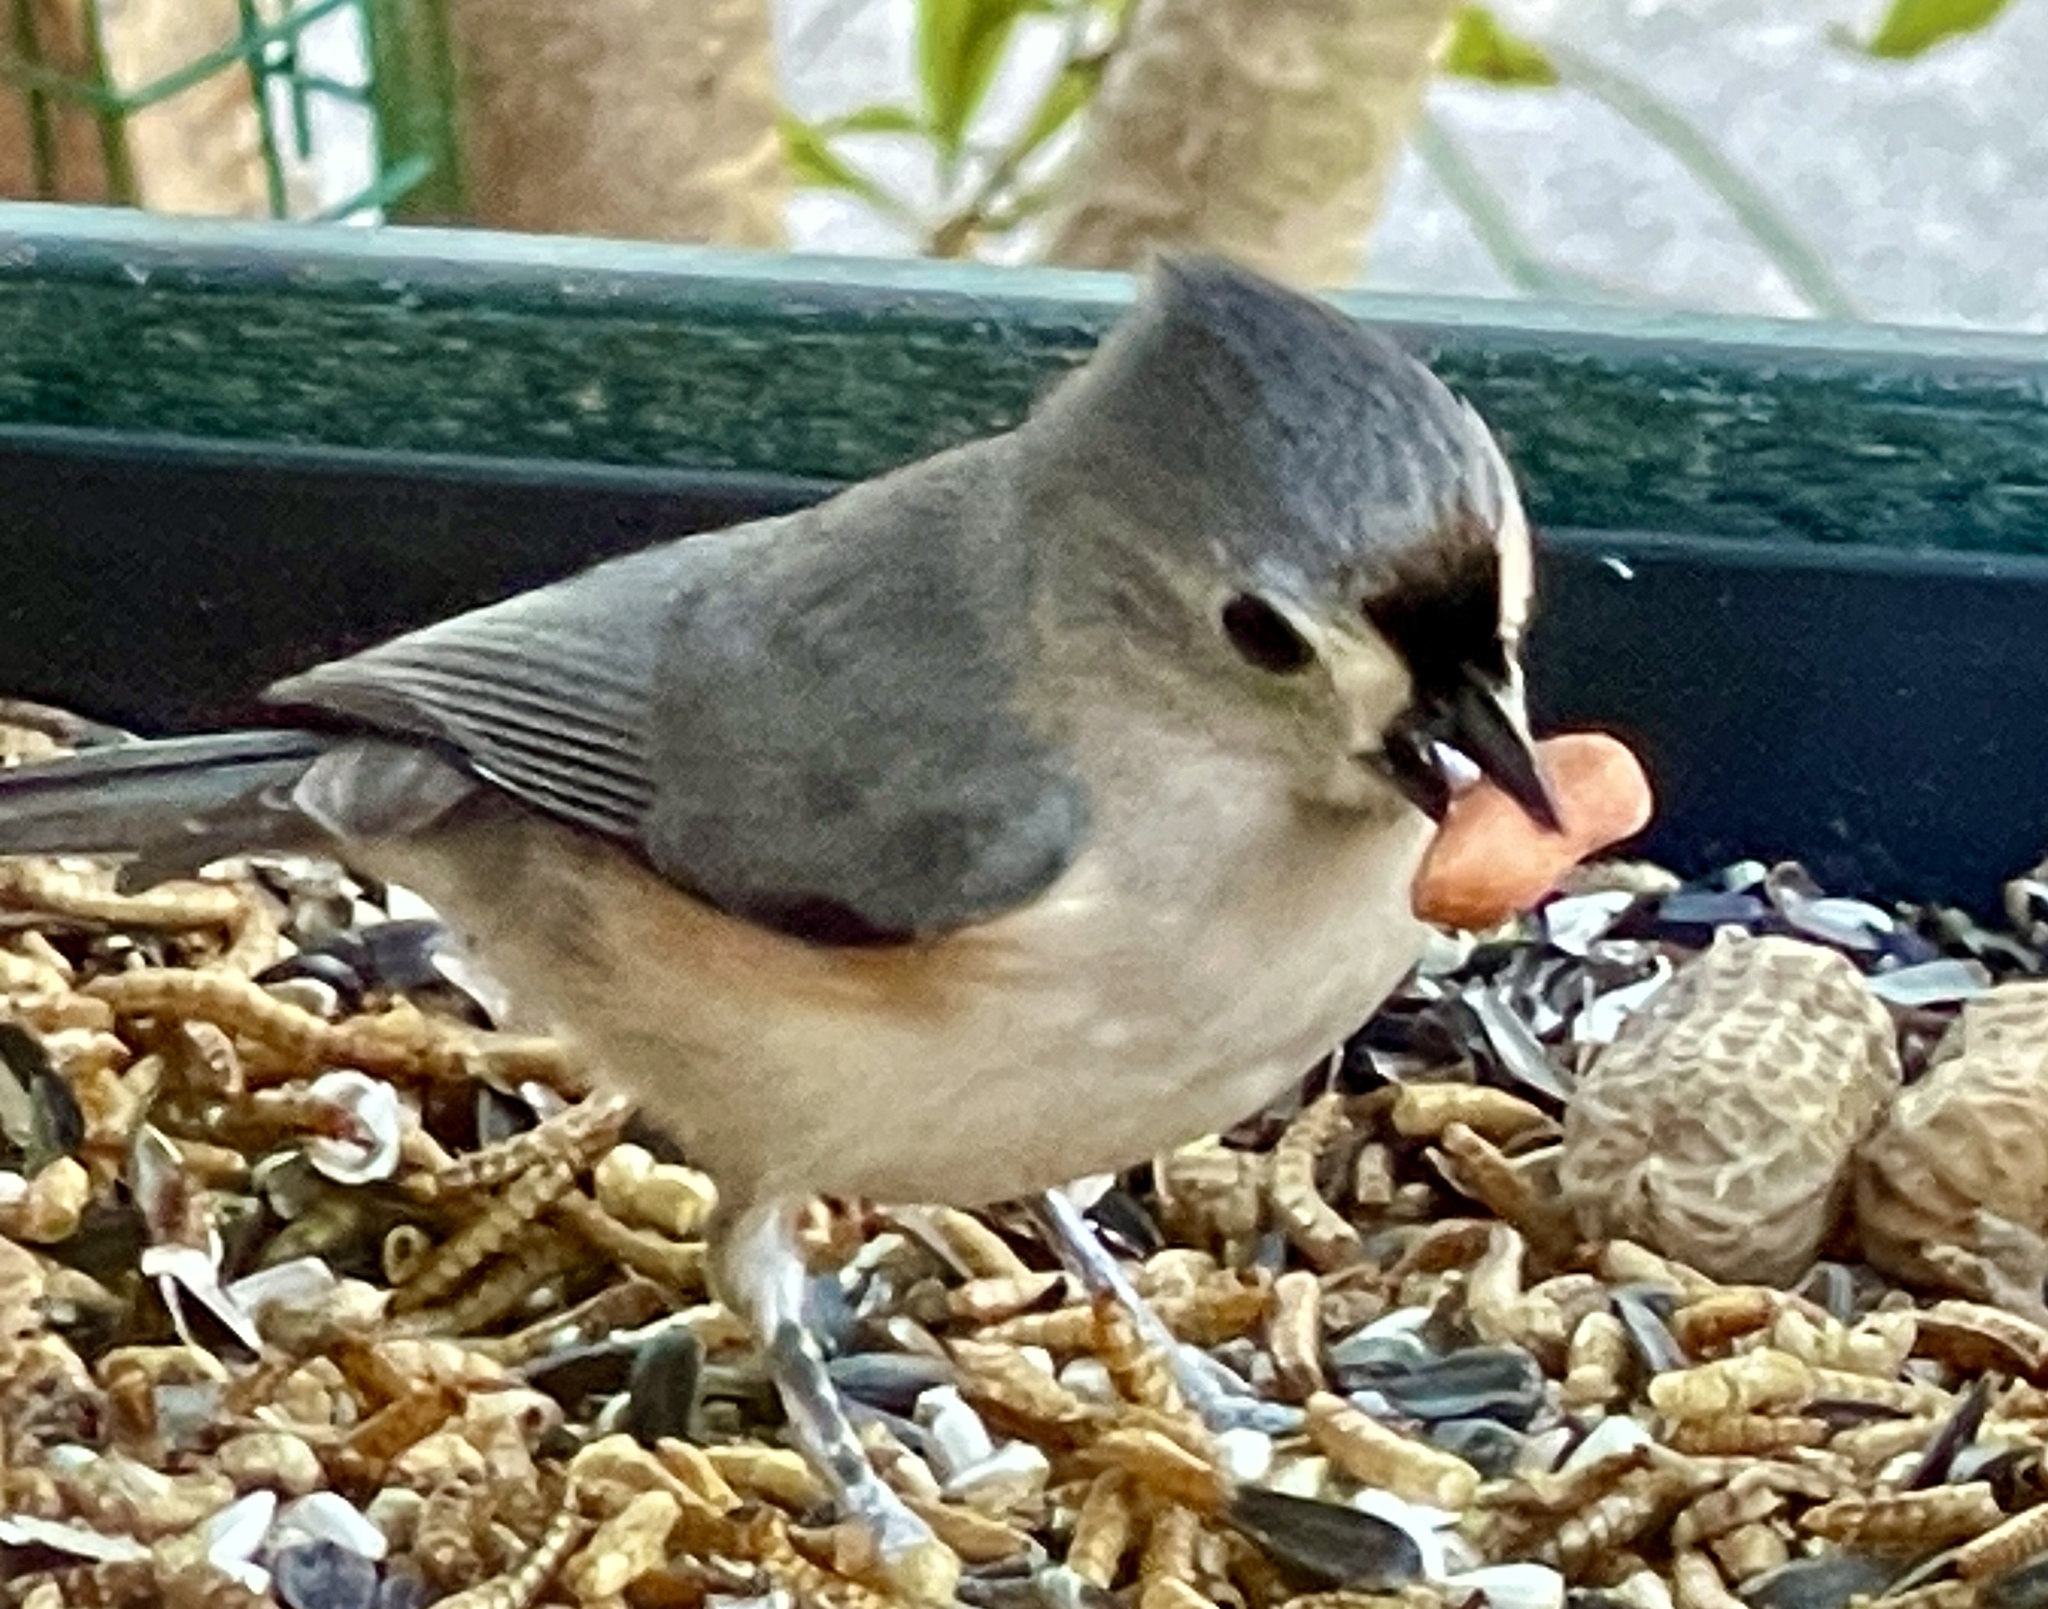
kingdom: Animalia
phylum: Chordata
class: Aves
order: Passeriformes
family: Paridae
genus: Baeolophus
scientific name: Baeolophus bicolor
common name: Tufted titmouse
